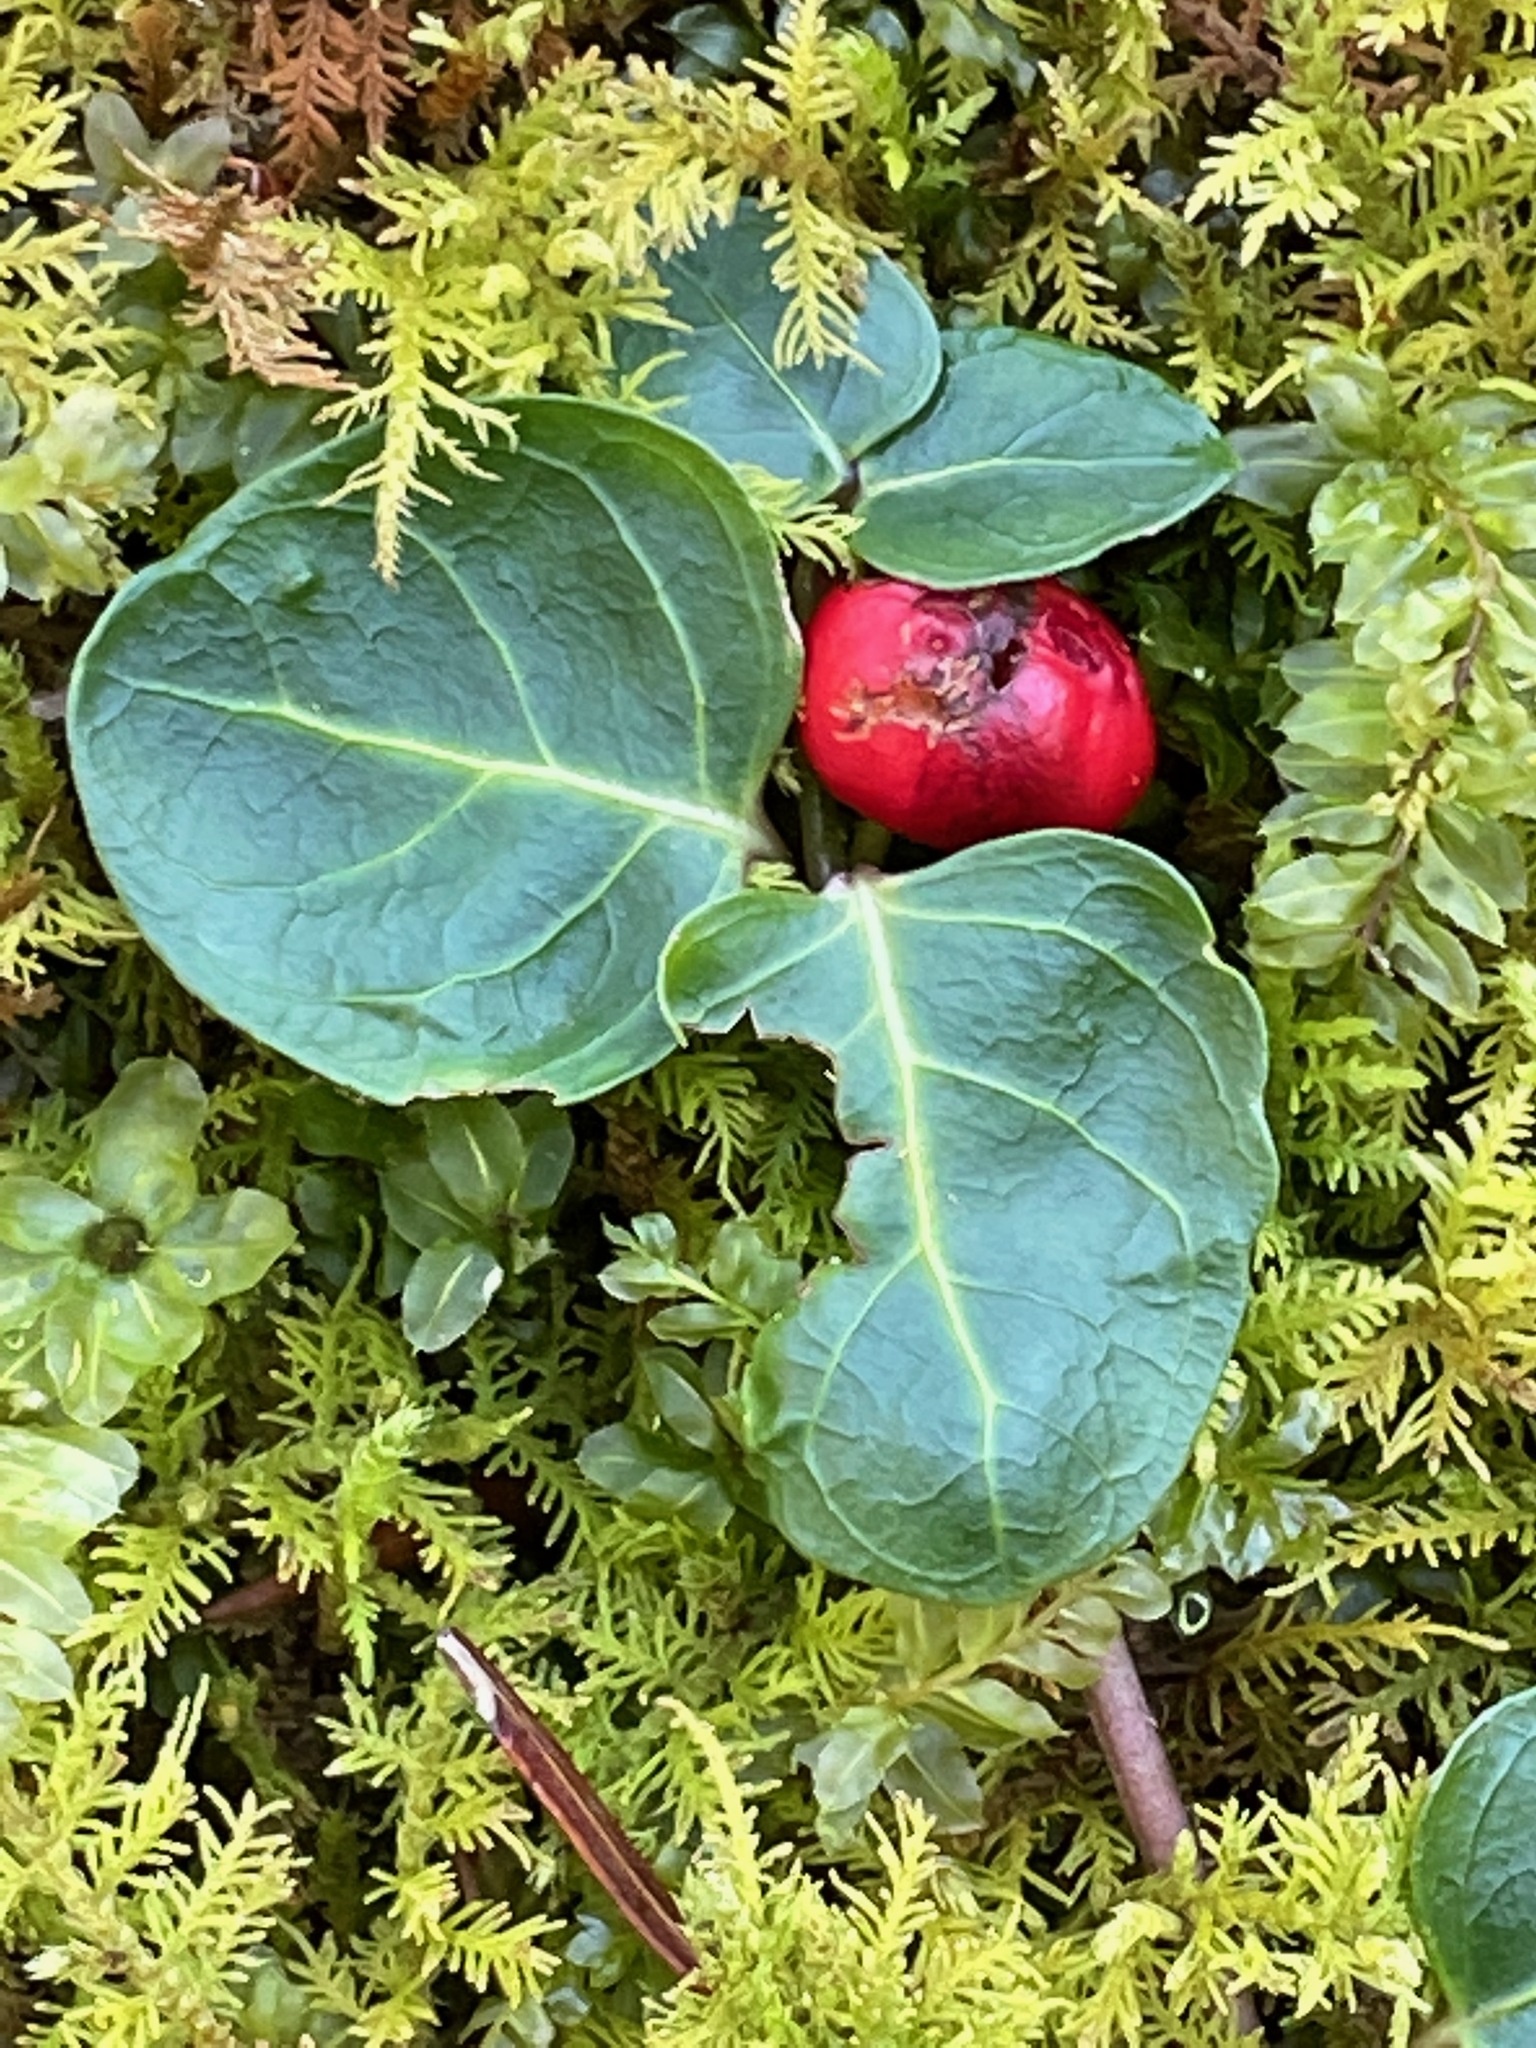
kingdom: Plantae
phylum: Tracheophyta
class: Magnoliopsida
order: Gentianales
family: Rubiaceae
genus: Mitchella
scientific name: Mitchella repens
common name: Partridge-berry
